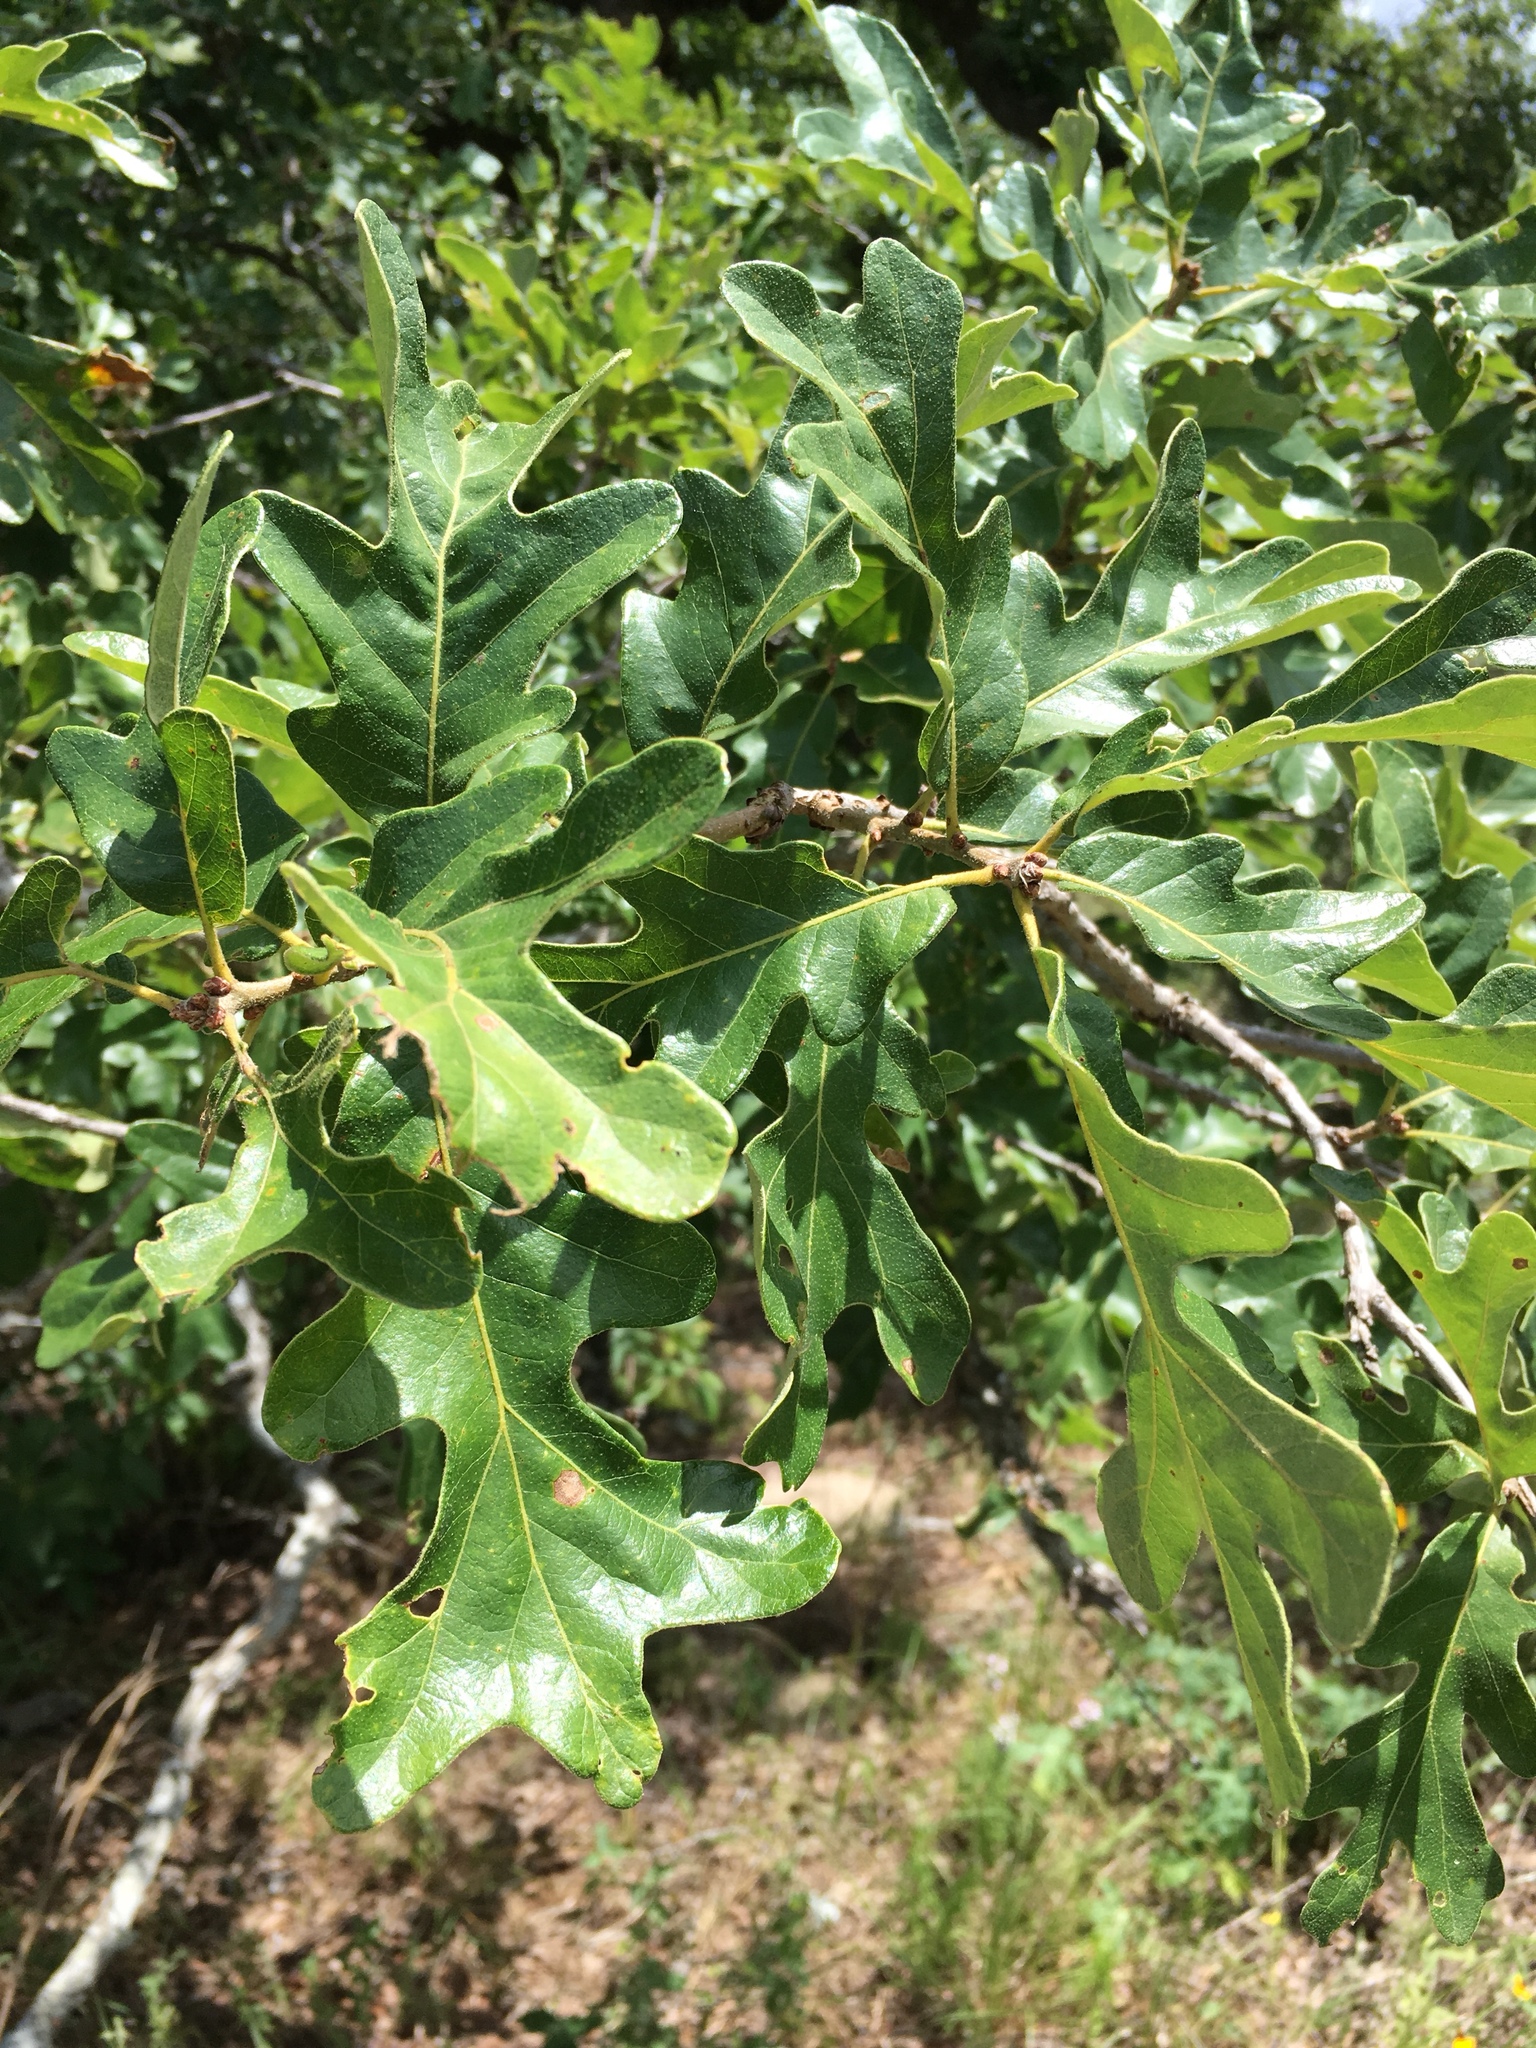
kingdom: Plantae
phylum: Tracheophyta
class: Magnoliopsida
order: Fagales
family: Fagaceae
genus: Quercus
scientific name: Quercus stellata
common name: Post oak
